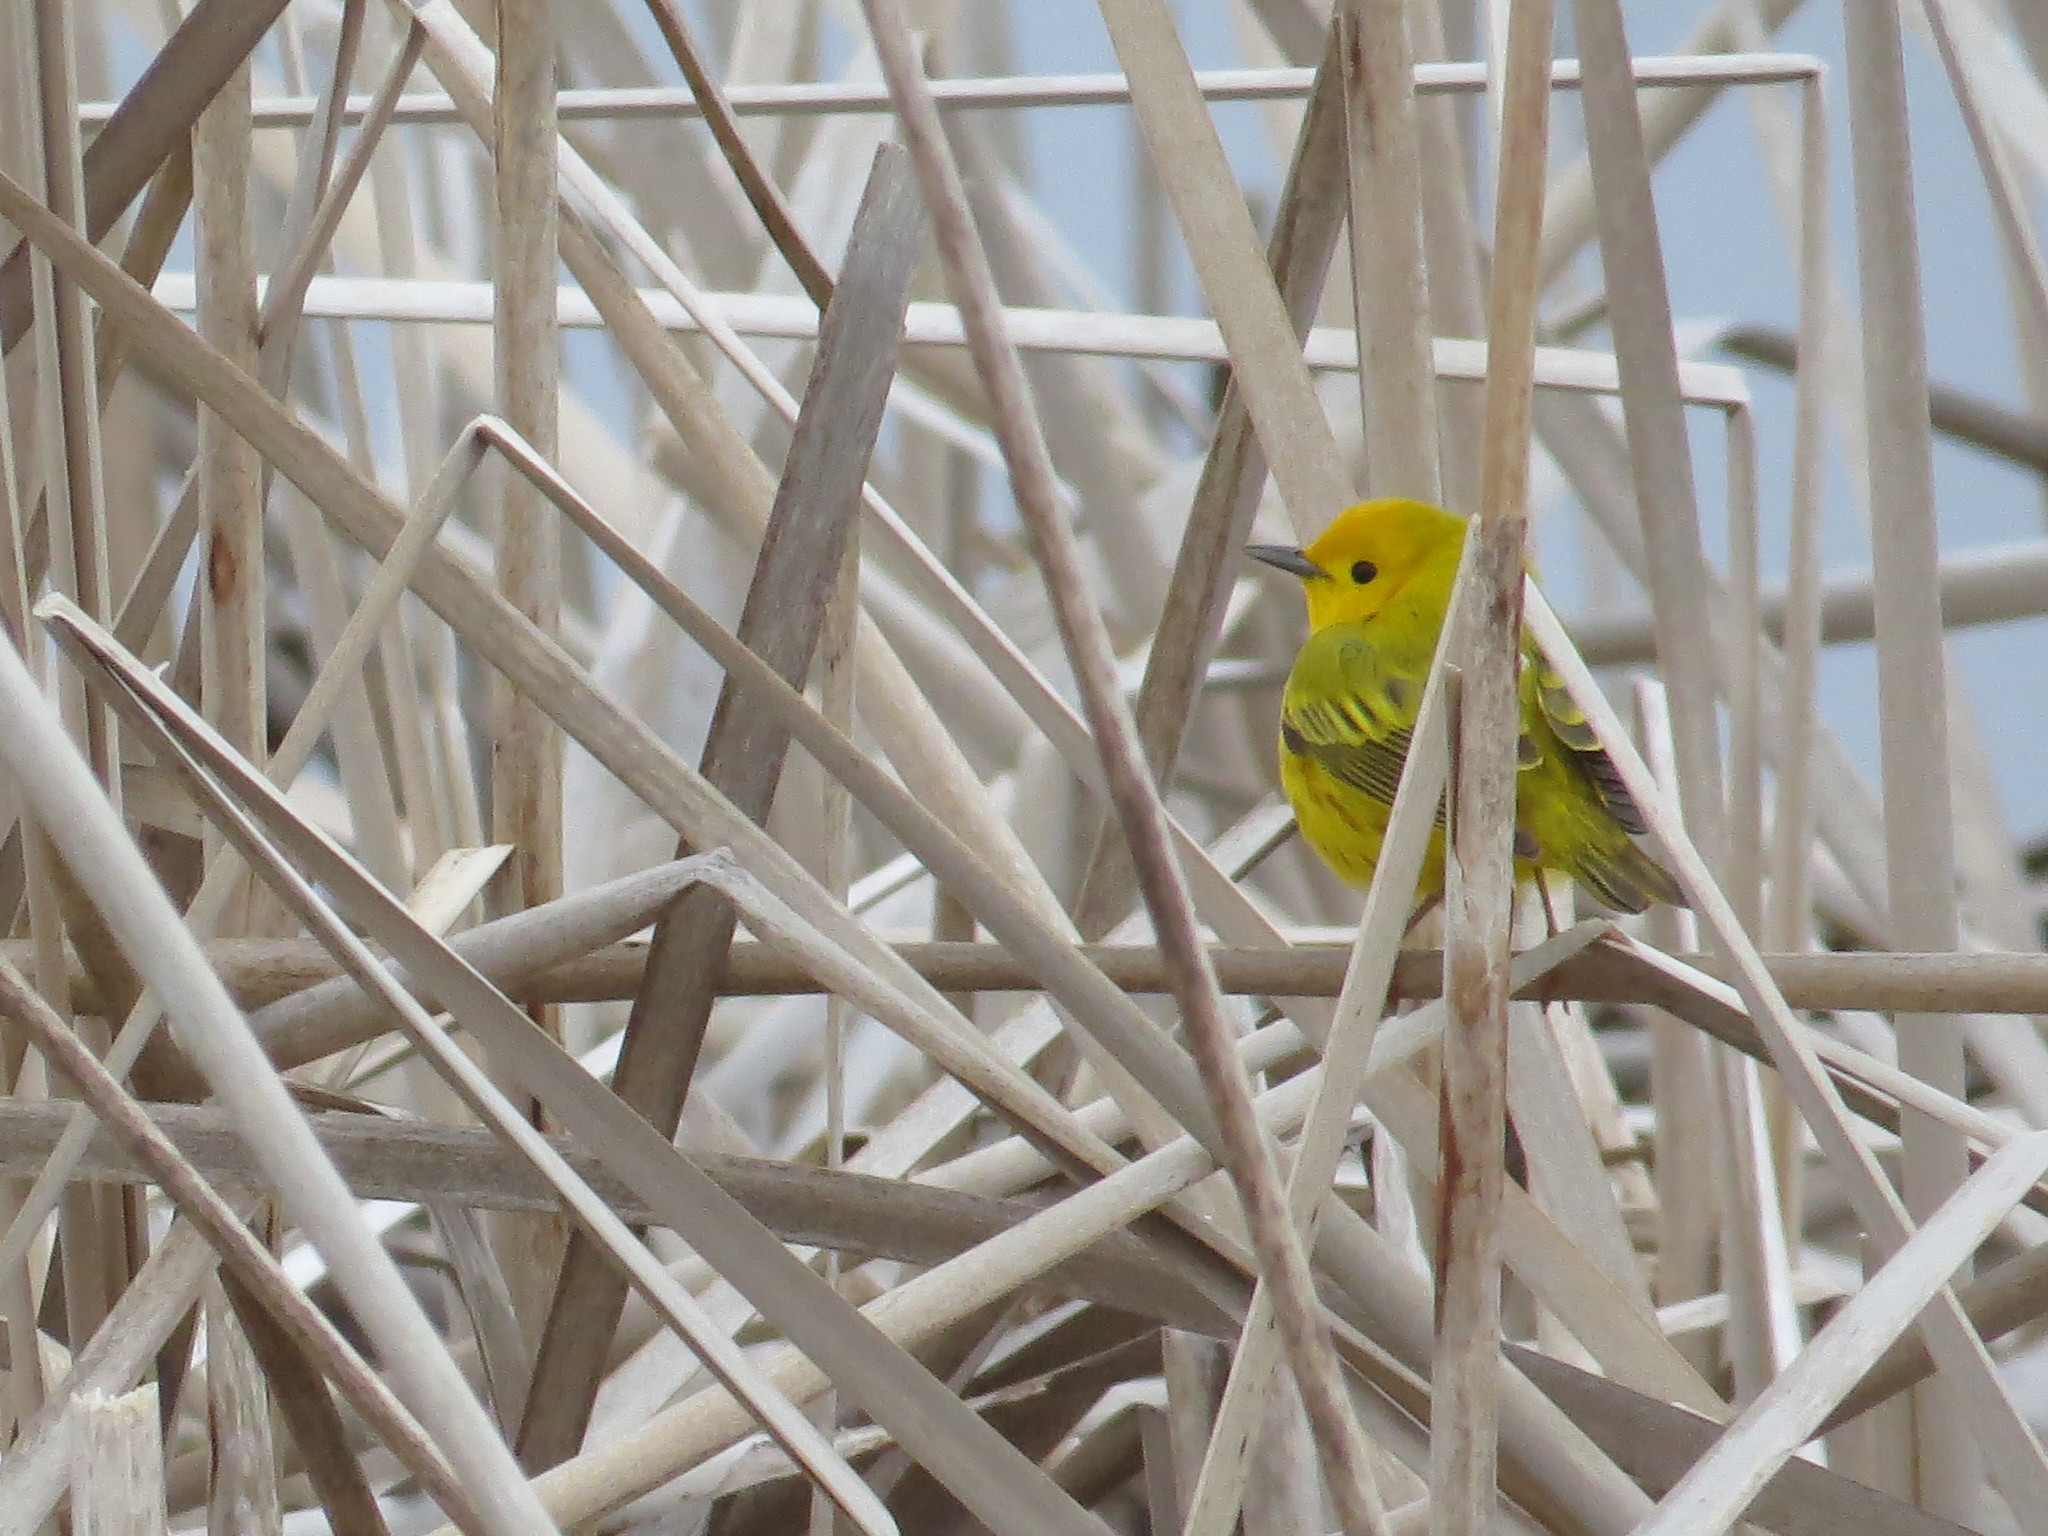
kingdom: Animalia
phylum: Chordata
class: Aves
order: Passeriformes
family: Parulidae
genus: Setophaga
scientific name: Setophaga petechia
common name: Yellow warbler
